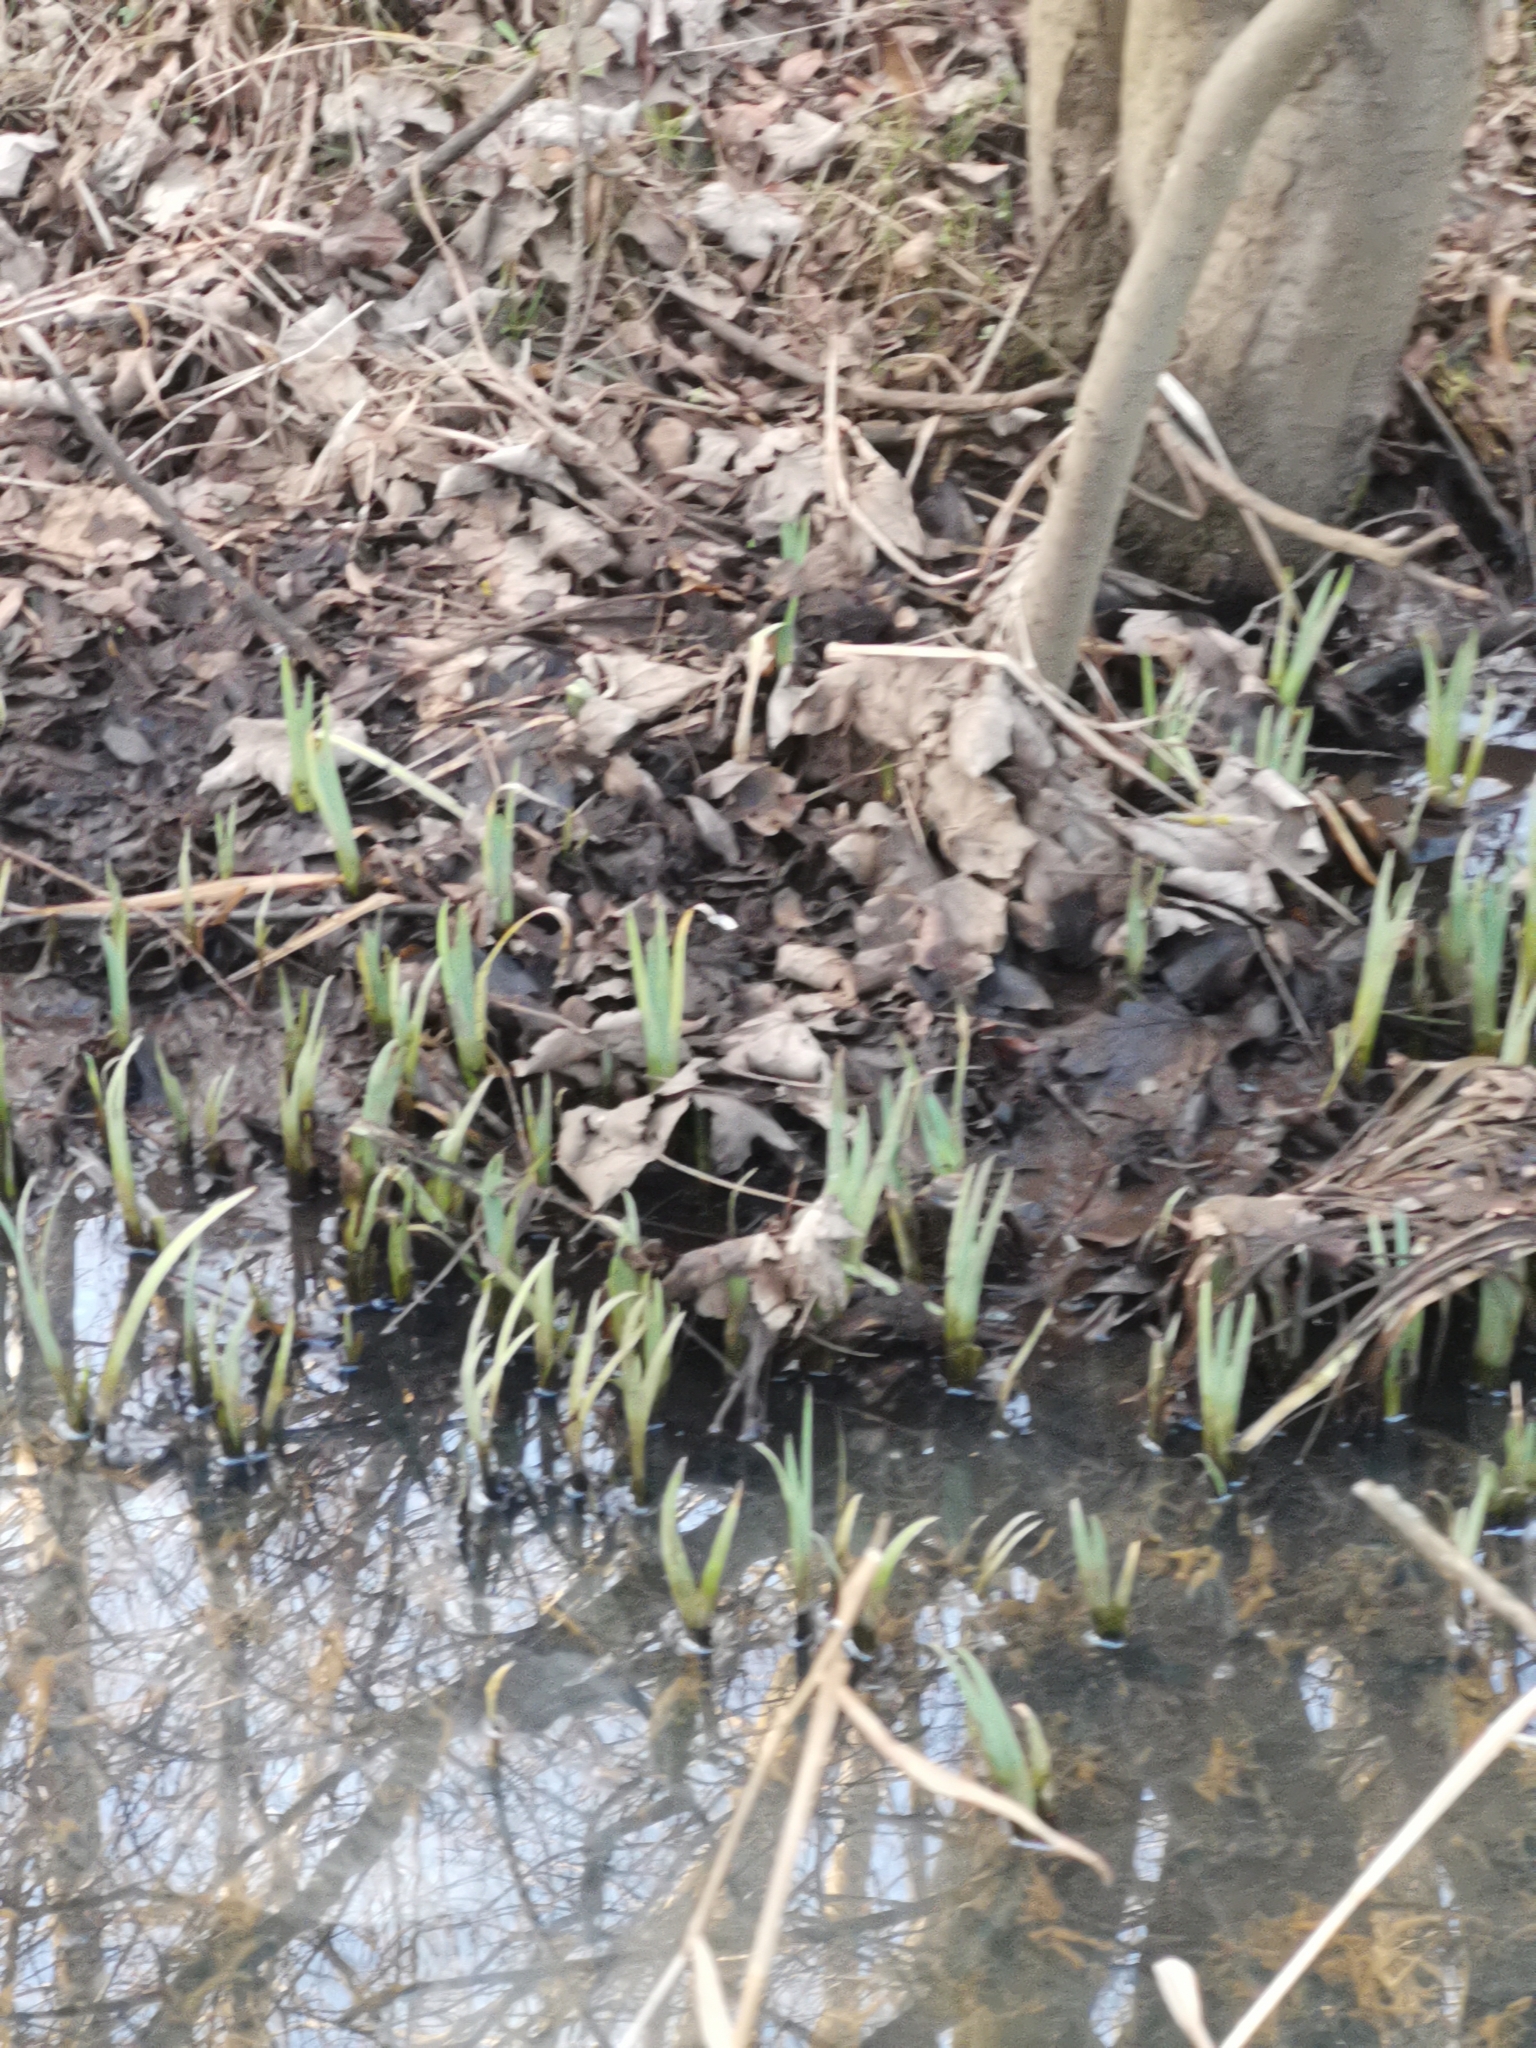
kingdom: Plantae
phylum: Tracheophyta
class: Liliopsida
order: Asparagales
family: Iridaceae
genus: Iris
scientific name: Iris pseudacorus
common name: Yellow flag
